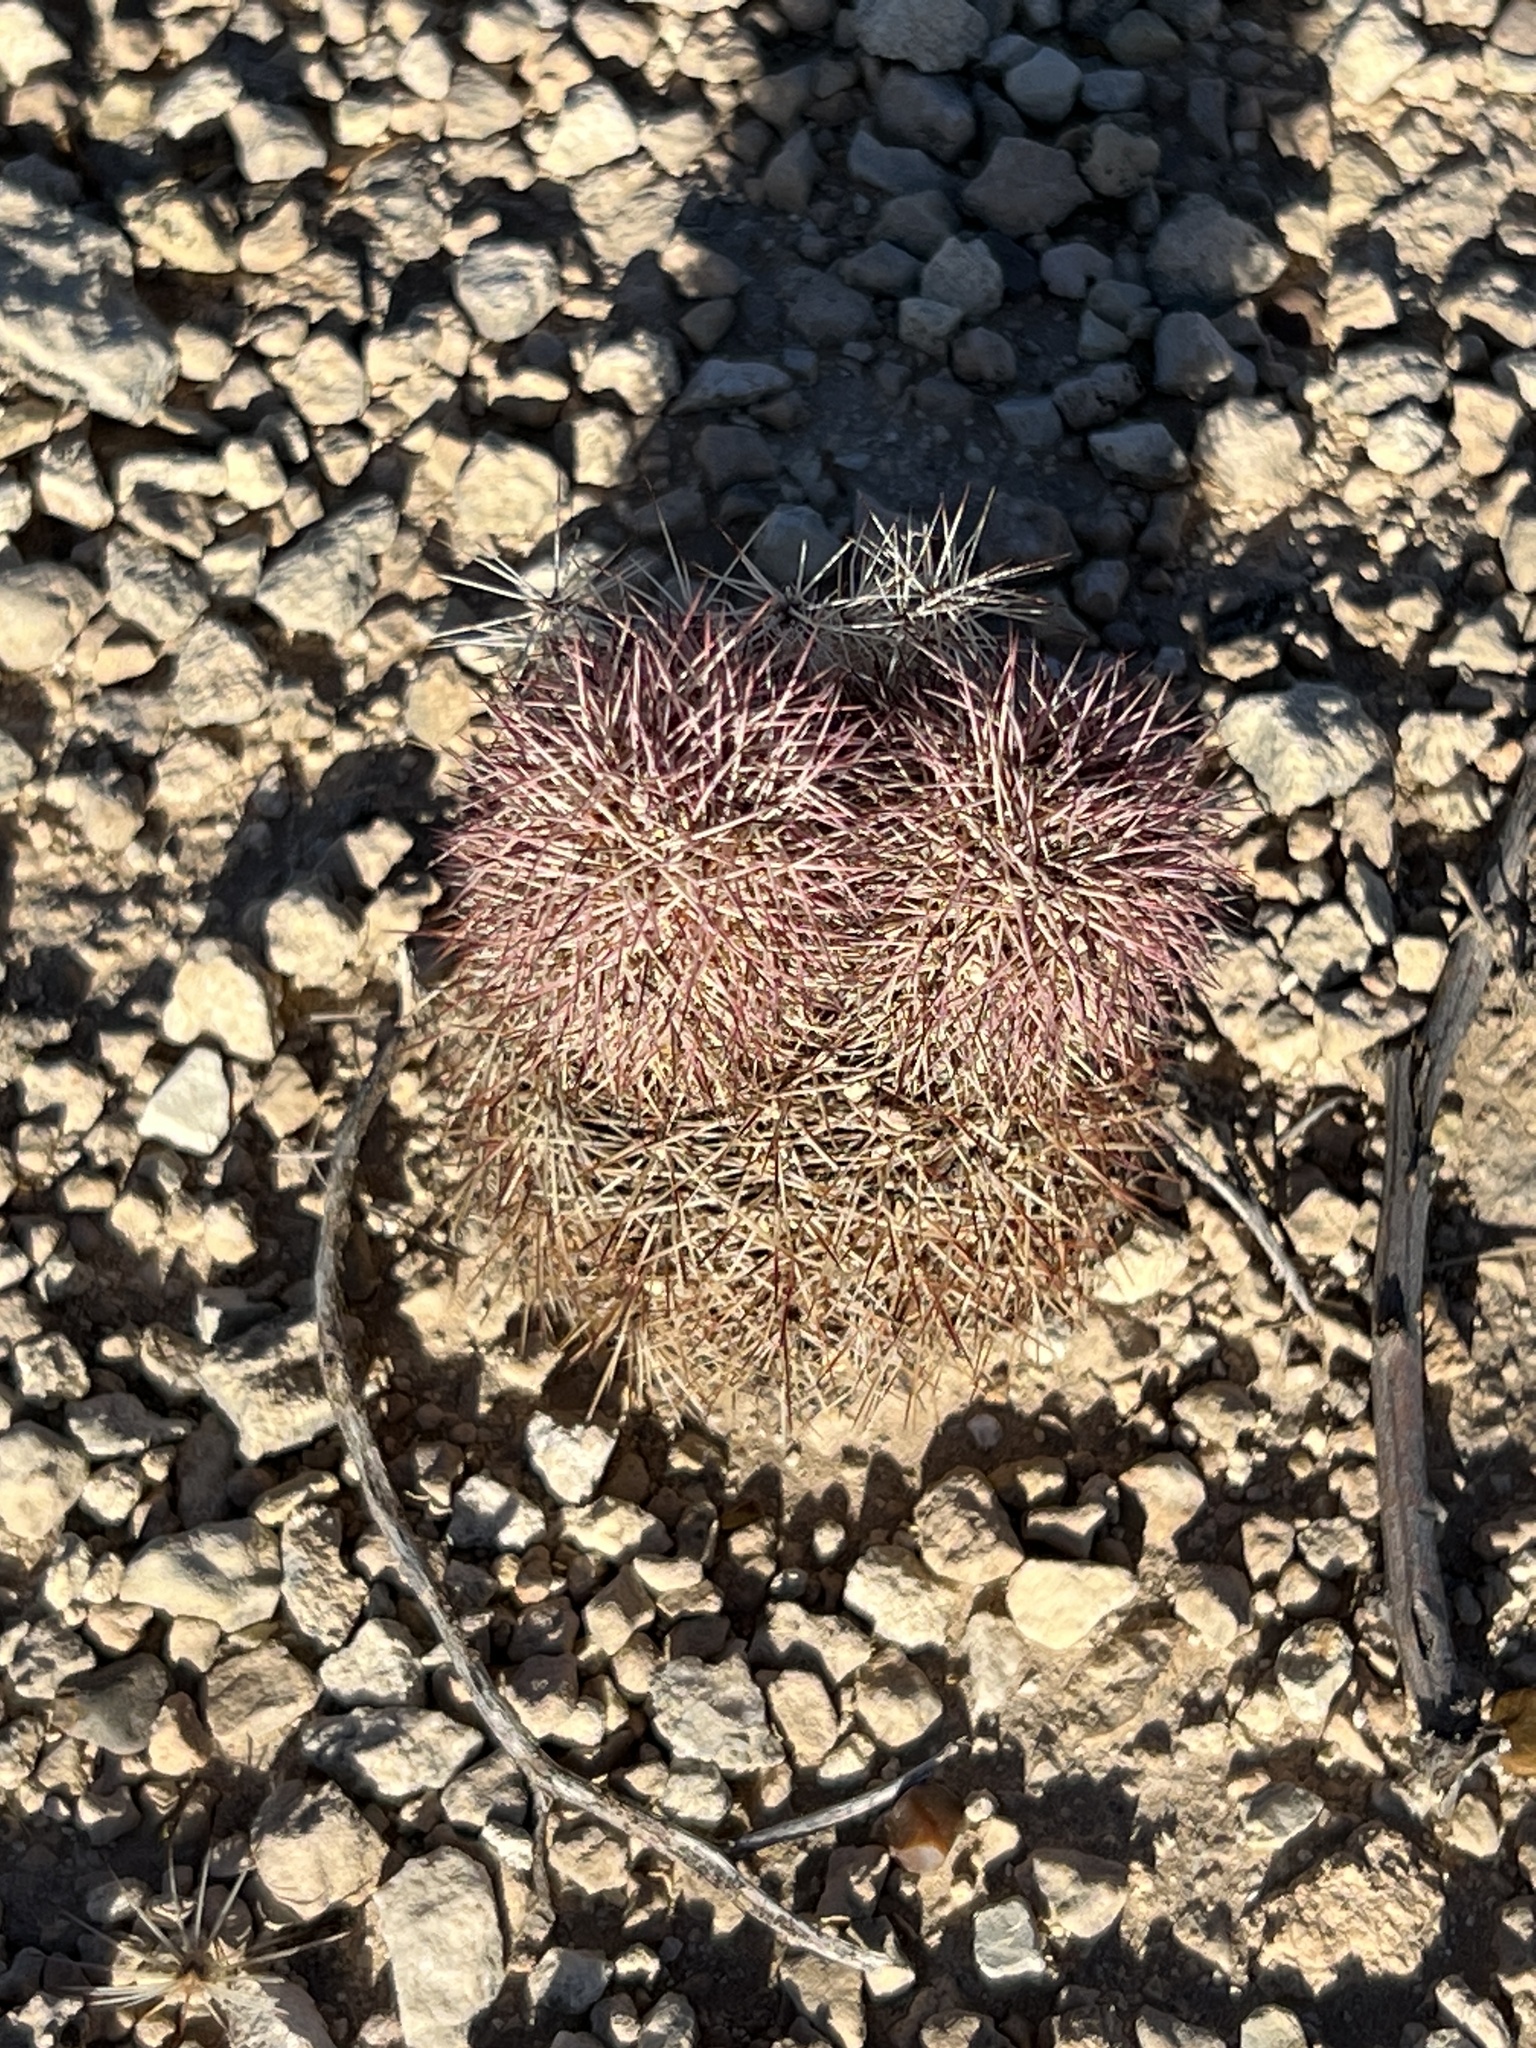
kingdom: Plantae
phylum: Tracheophyta
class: Magnoliopsida
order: Caryophyllales
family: Cactaceae
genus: Echinocereus
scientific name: Echinocereus dasyacanthus
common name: Spiny hedgehog cactus
